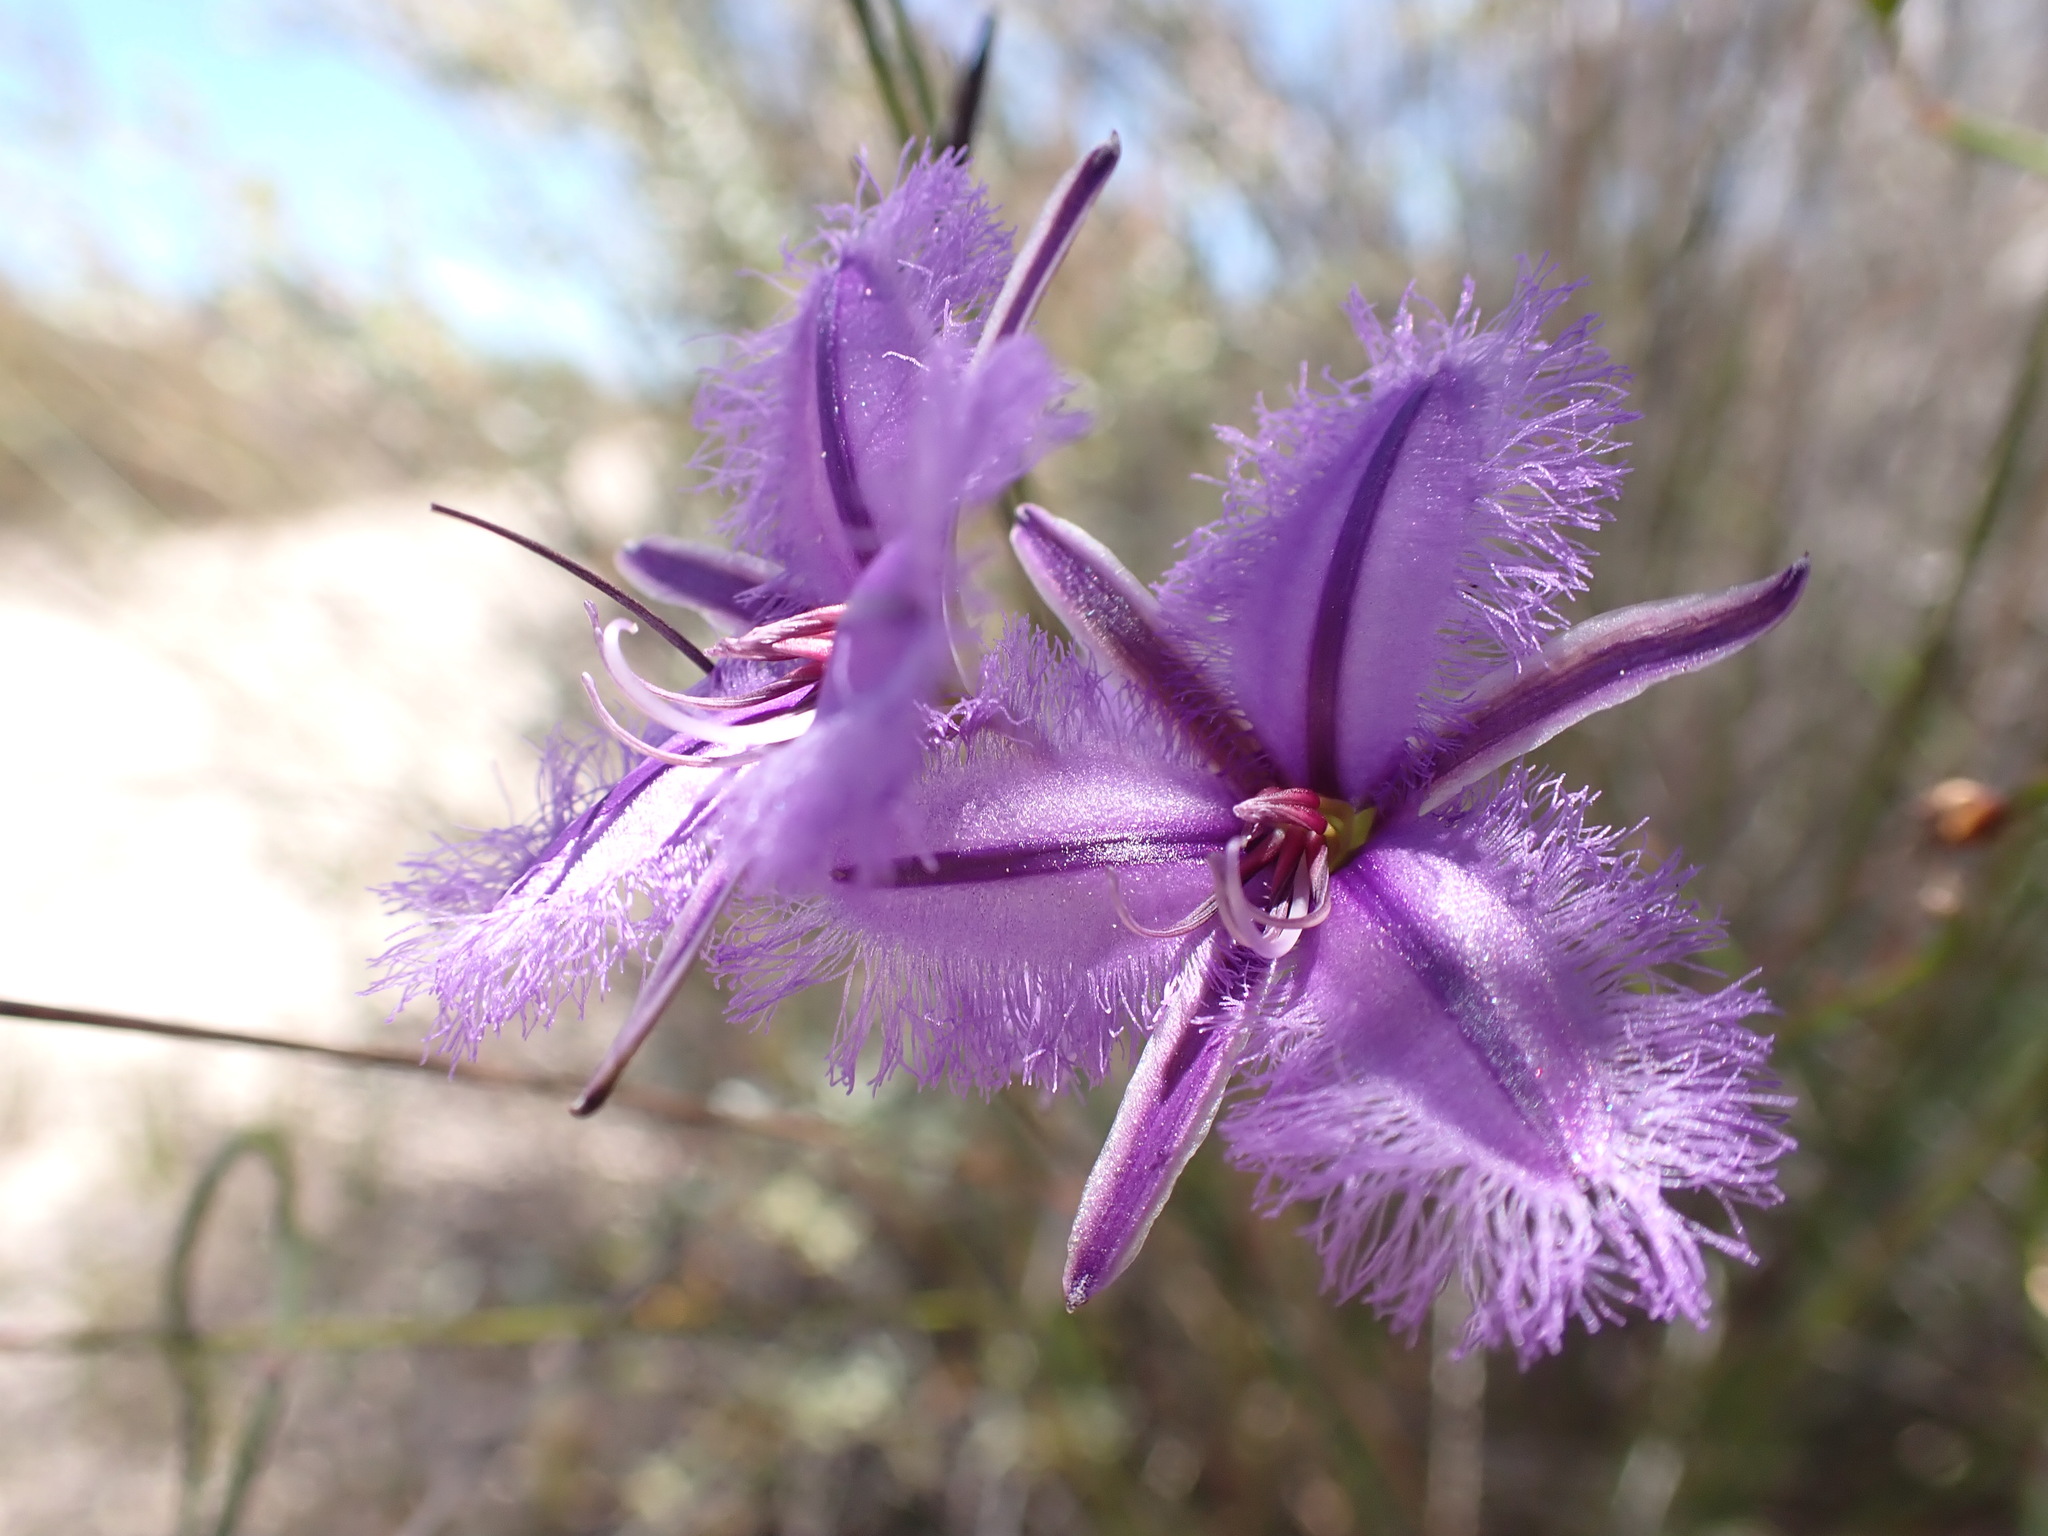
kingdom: Plantae
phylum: Tracheophyta
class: Liliopsida
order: Asparagales
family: Asparagaceae
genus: Thysanotus
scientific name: Thysanotus racemoides
